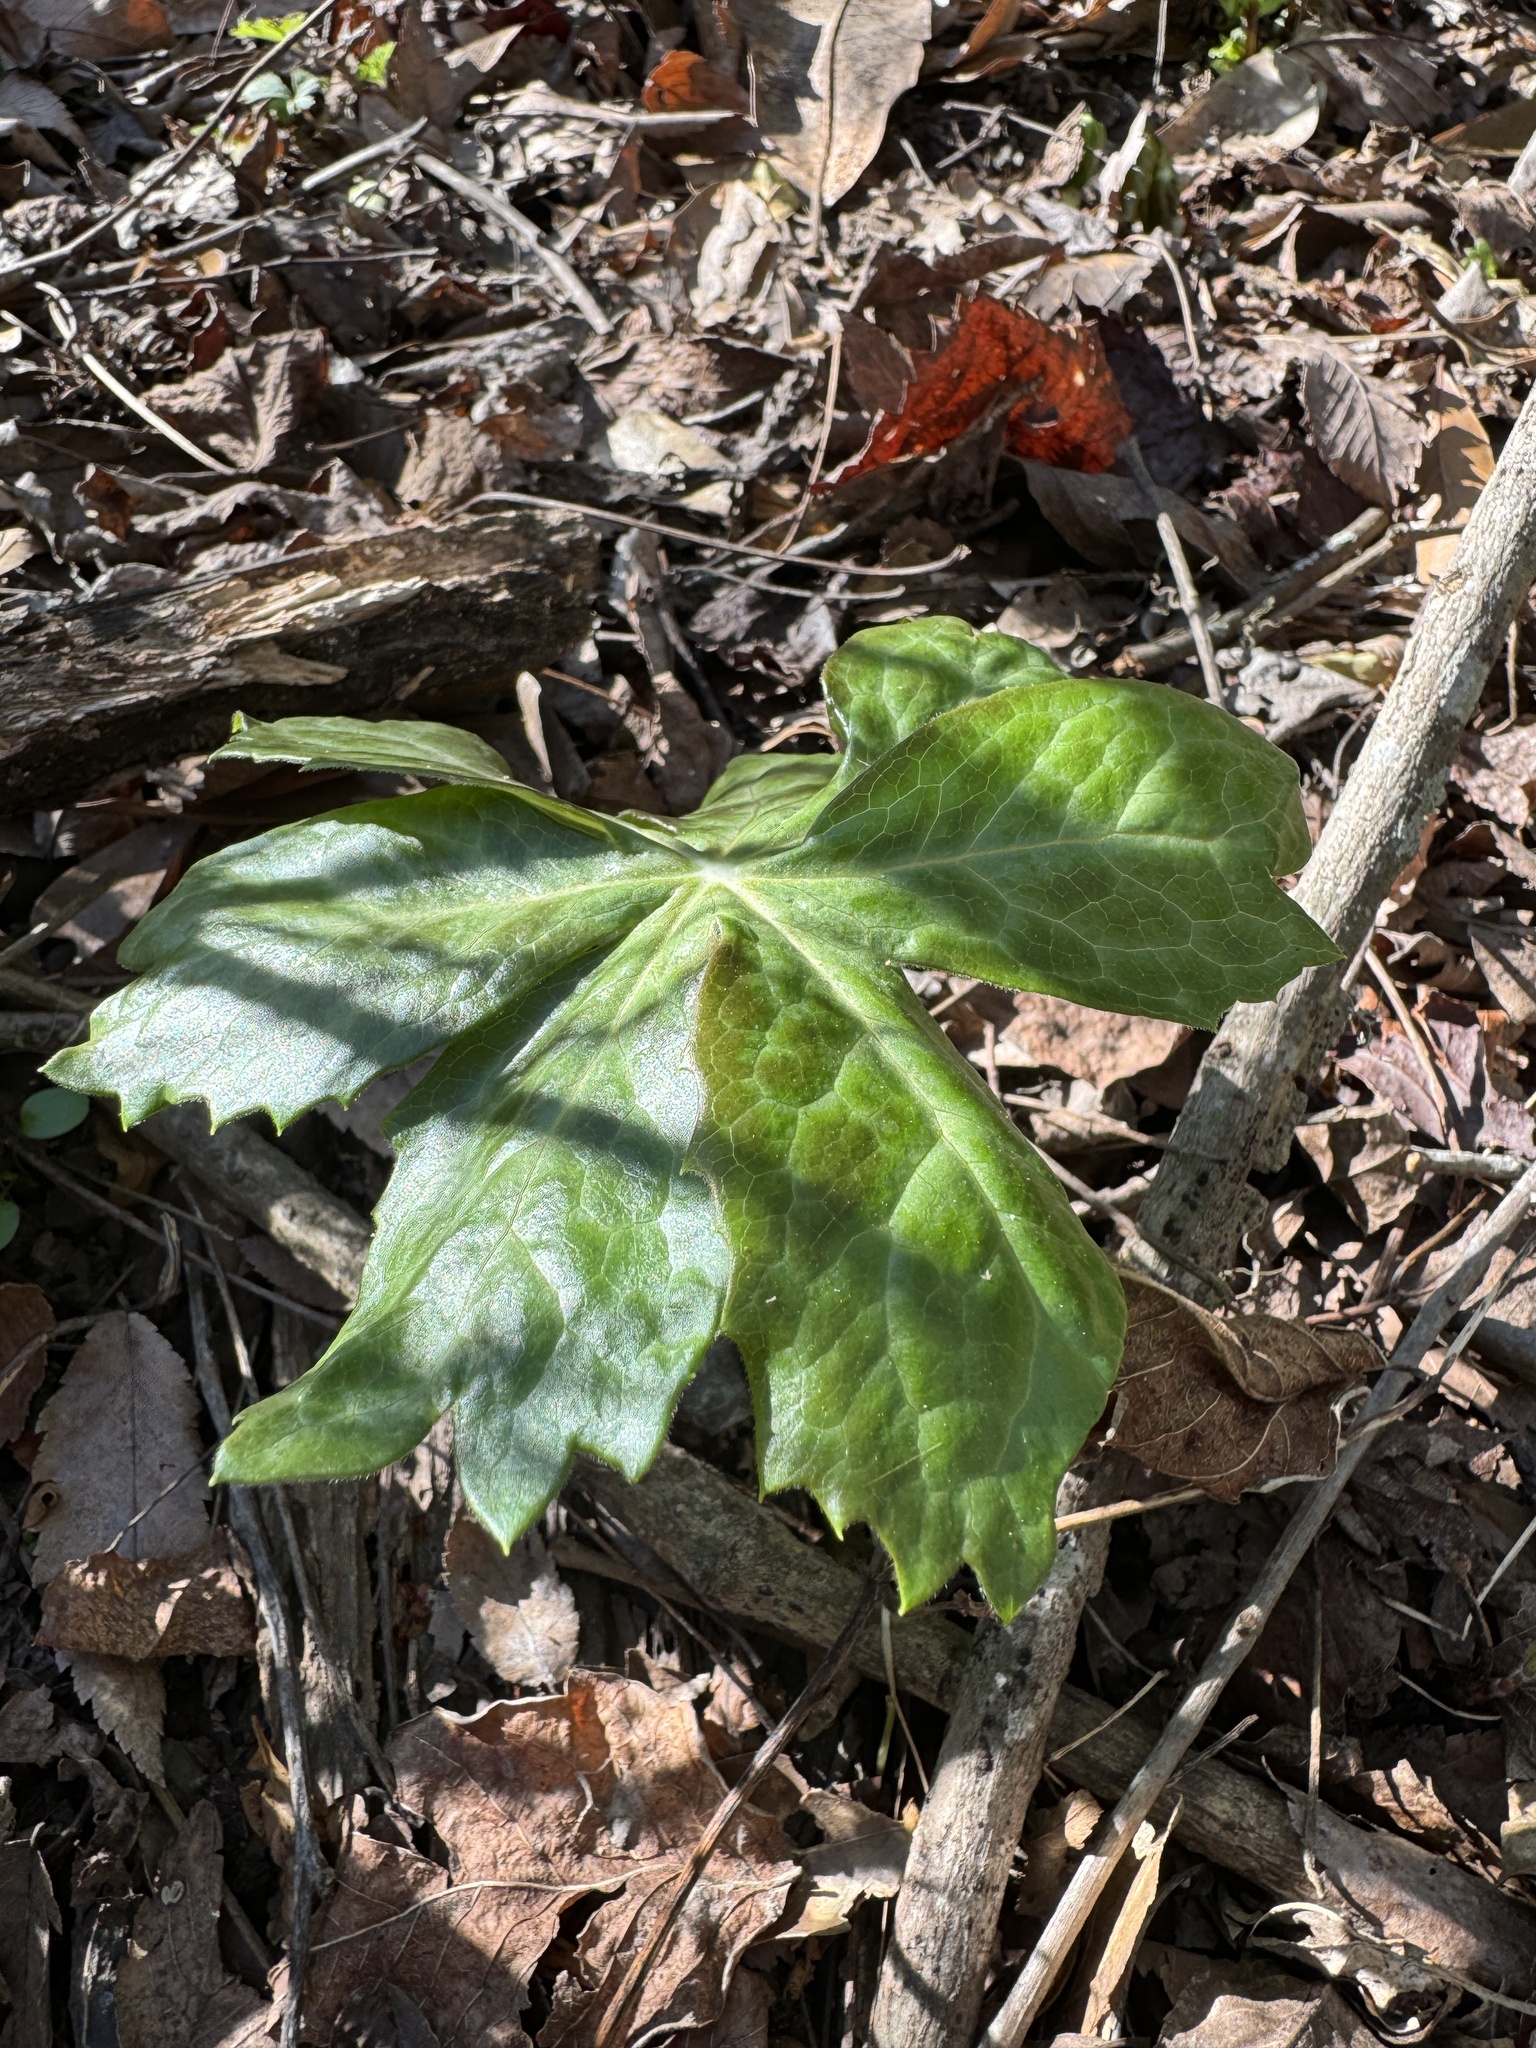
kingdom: Plantae
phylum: Tracheophyta
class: Magnoliopsida
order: Ranunculales
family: Berberidaceae
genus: Podophyllum
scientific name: Podophyllum peltatum
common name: Wild mandrake
